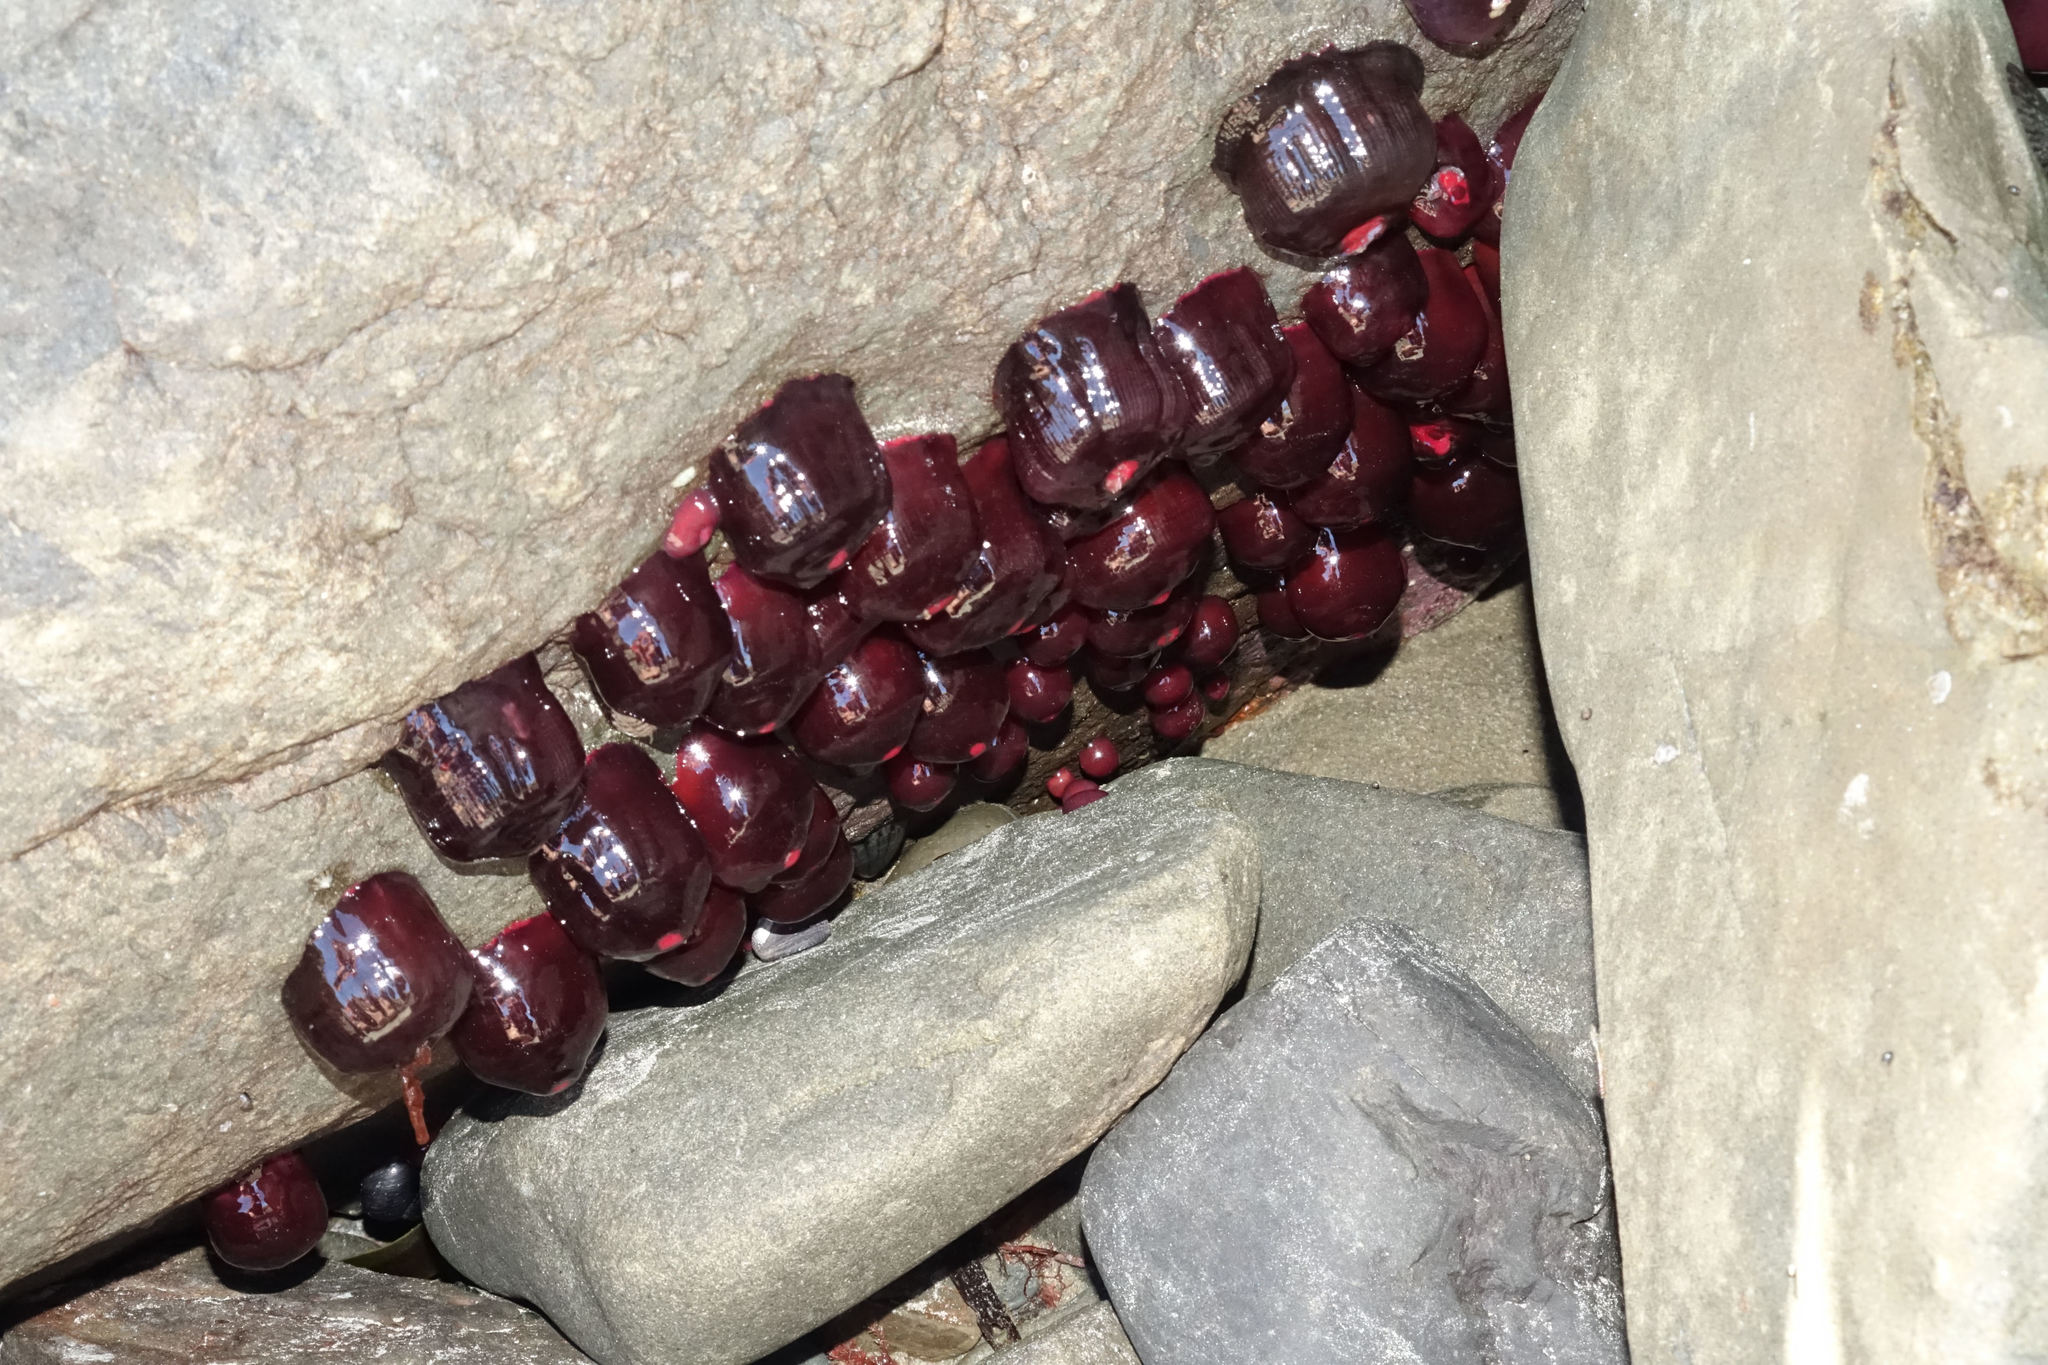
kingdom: Animalia
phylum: Cnidaria
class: Anthozoa
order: Actiniaria
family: Actiniidae
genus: Actinia
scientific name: Actinia tenebrosa
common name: Waratah anemone
